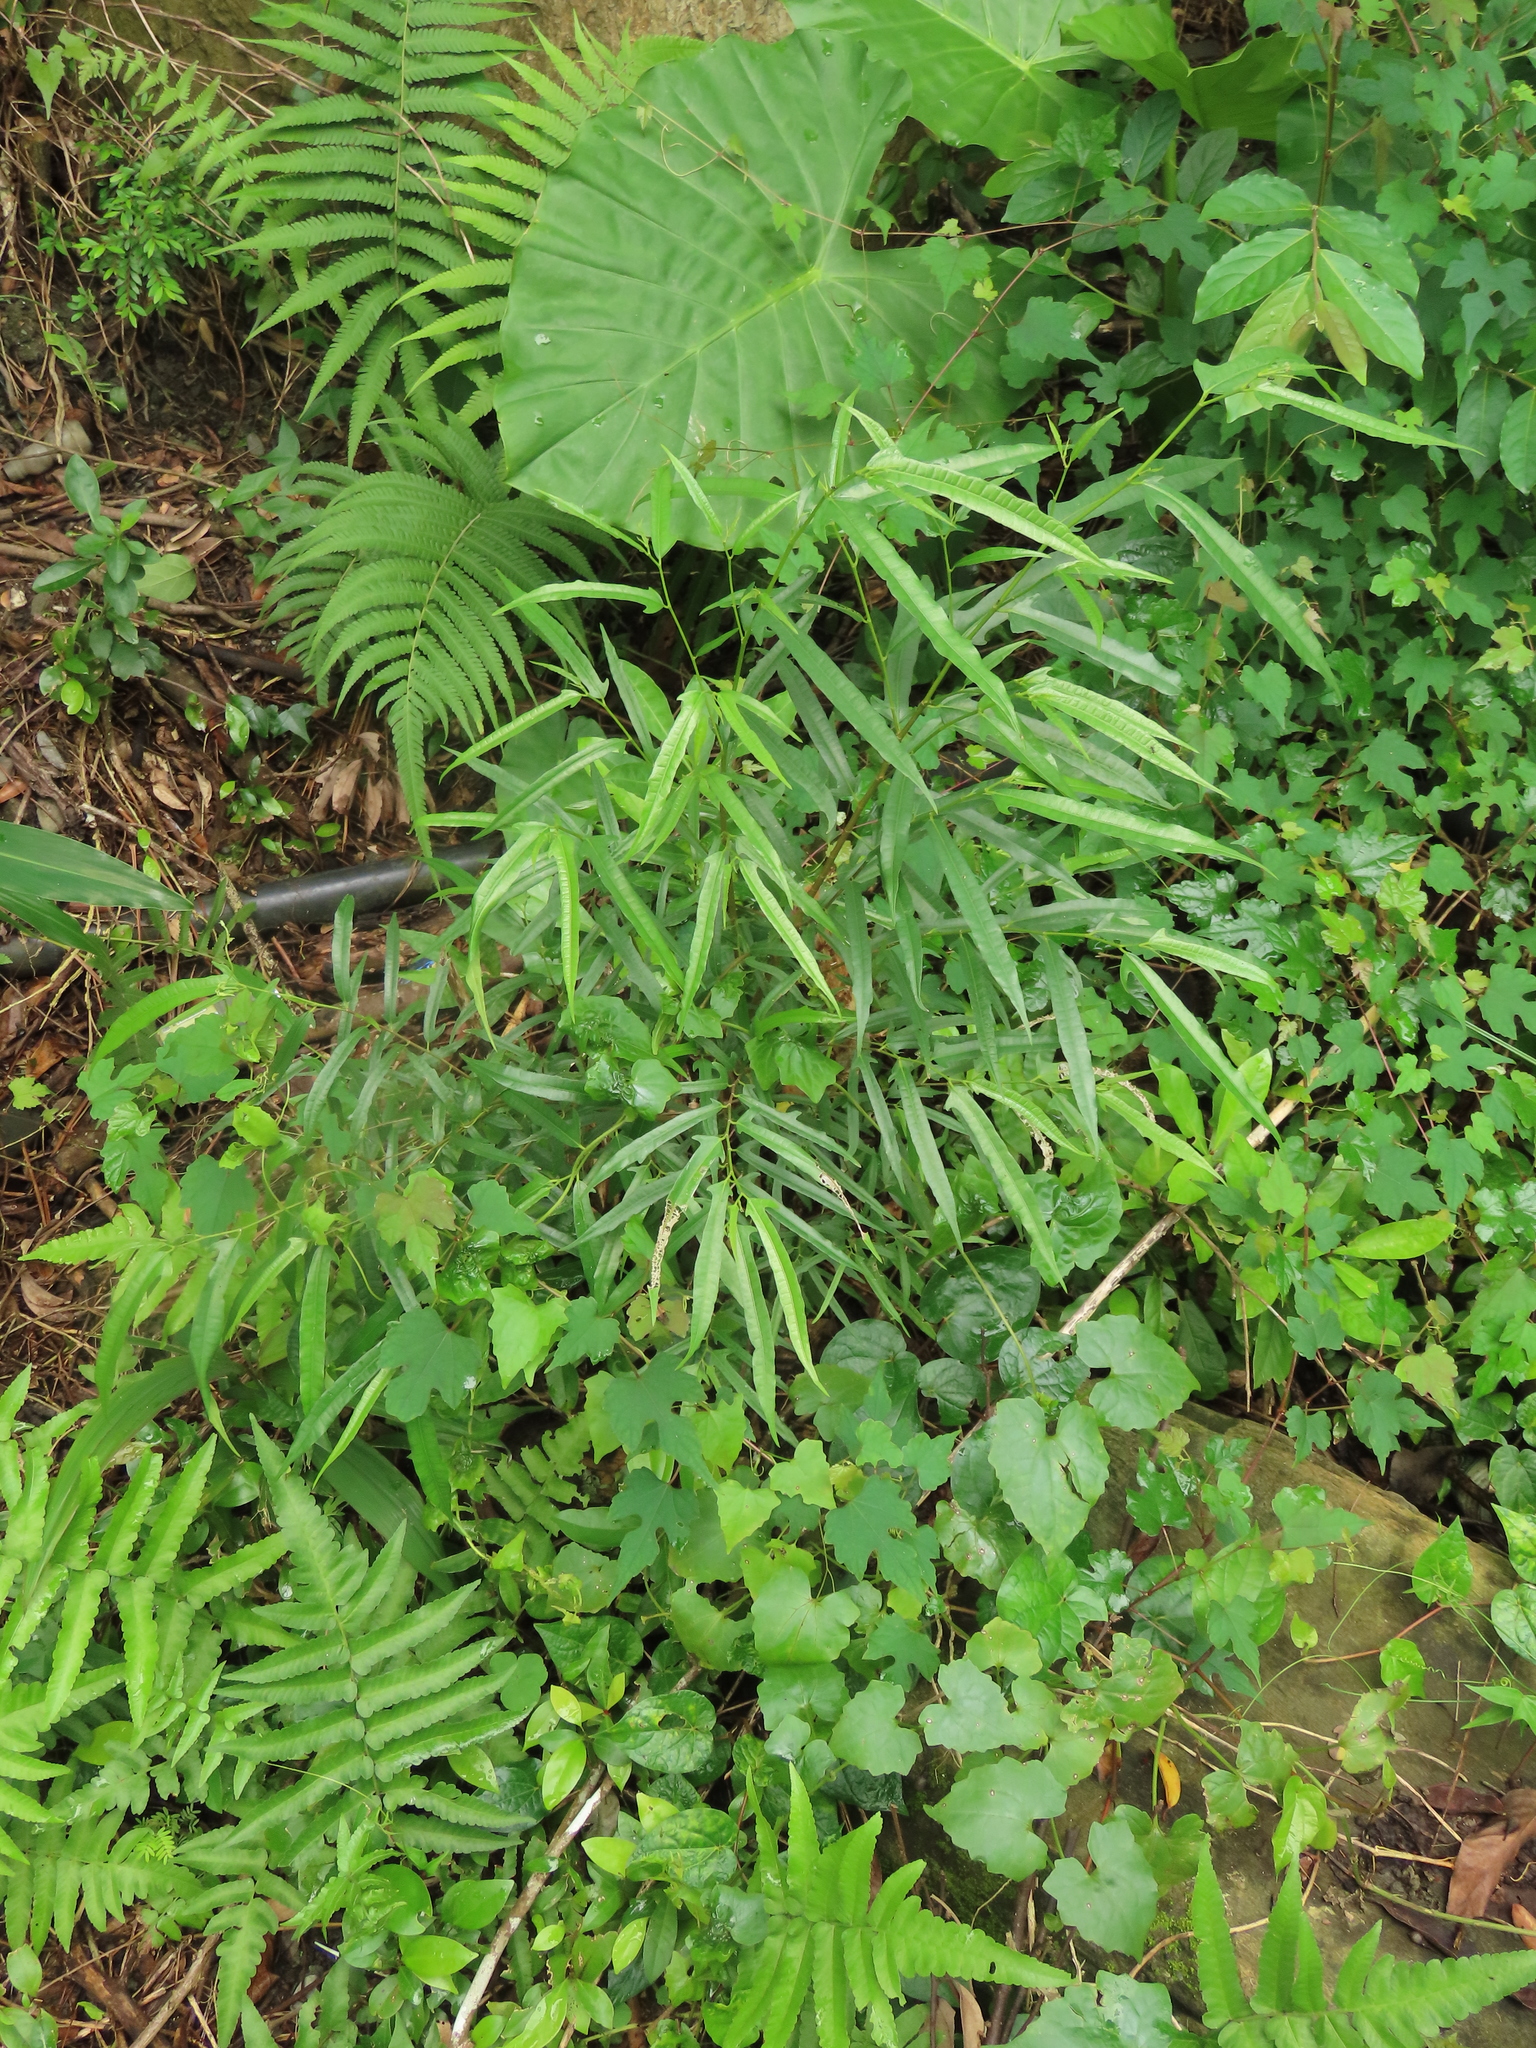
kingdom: Plantae
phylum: Tracheophyta
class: Magnoliopsida
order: Rosales
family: Moraceae
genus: Ficus
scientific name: Ficus ampelos
